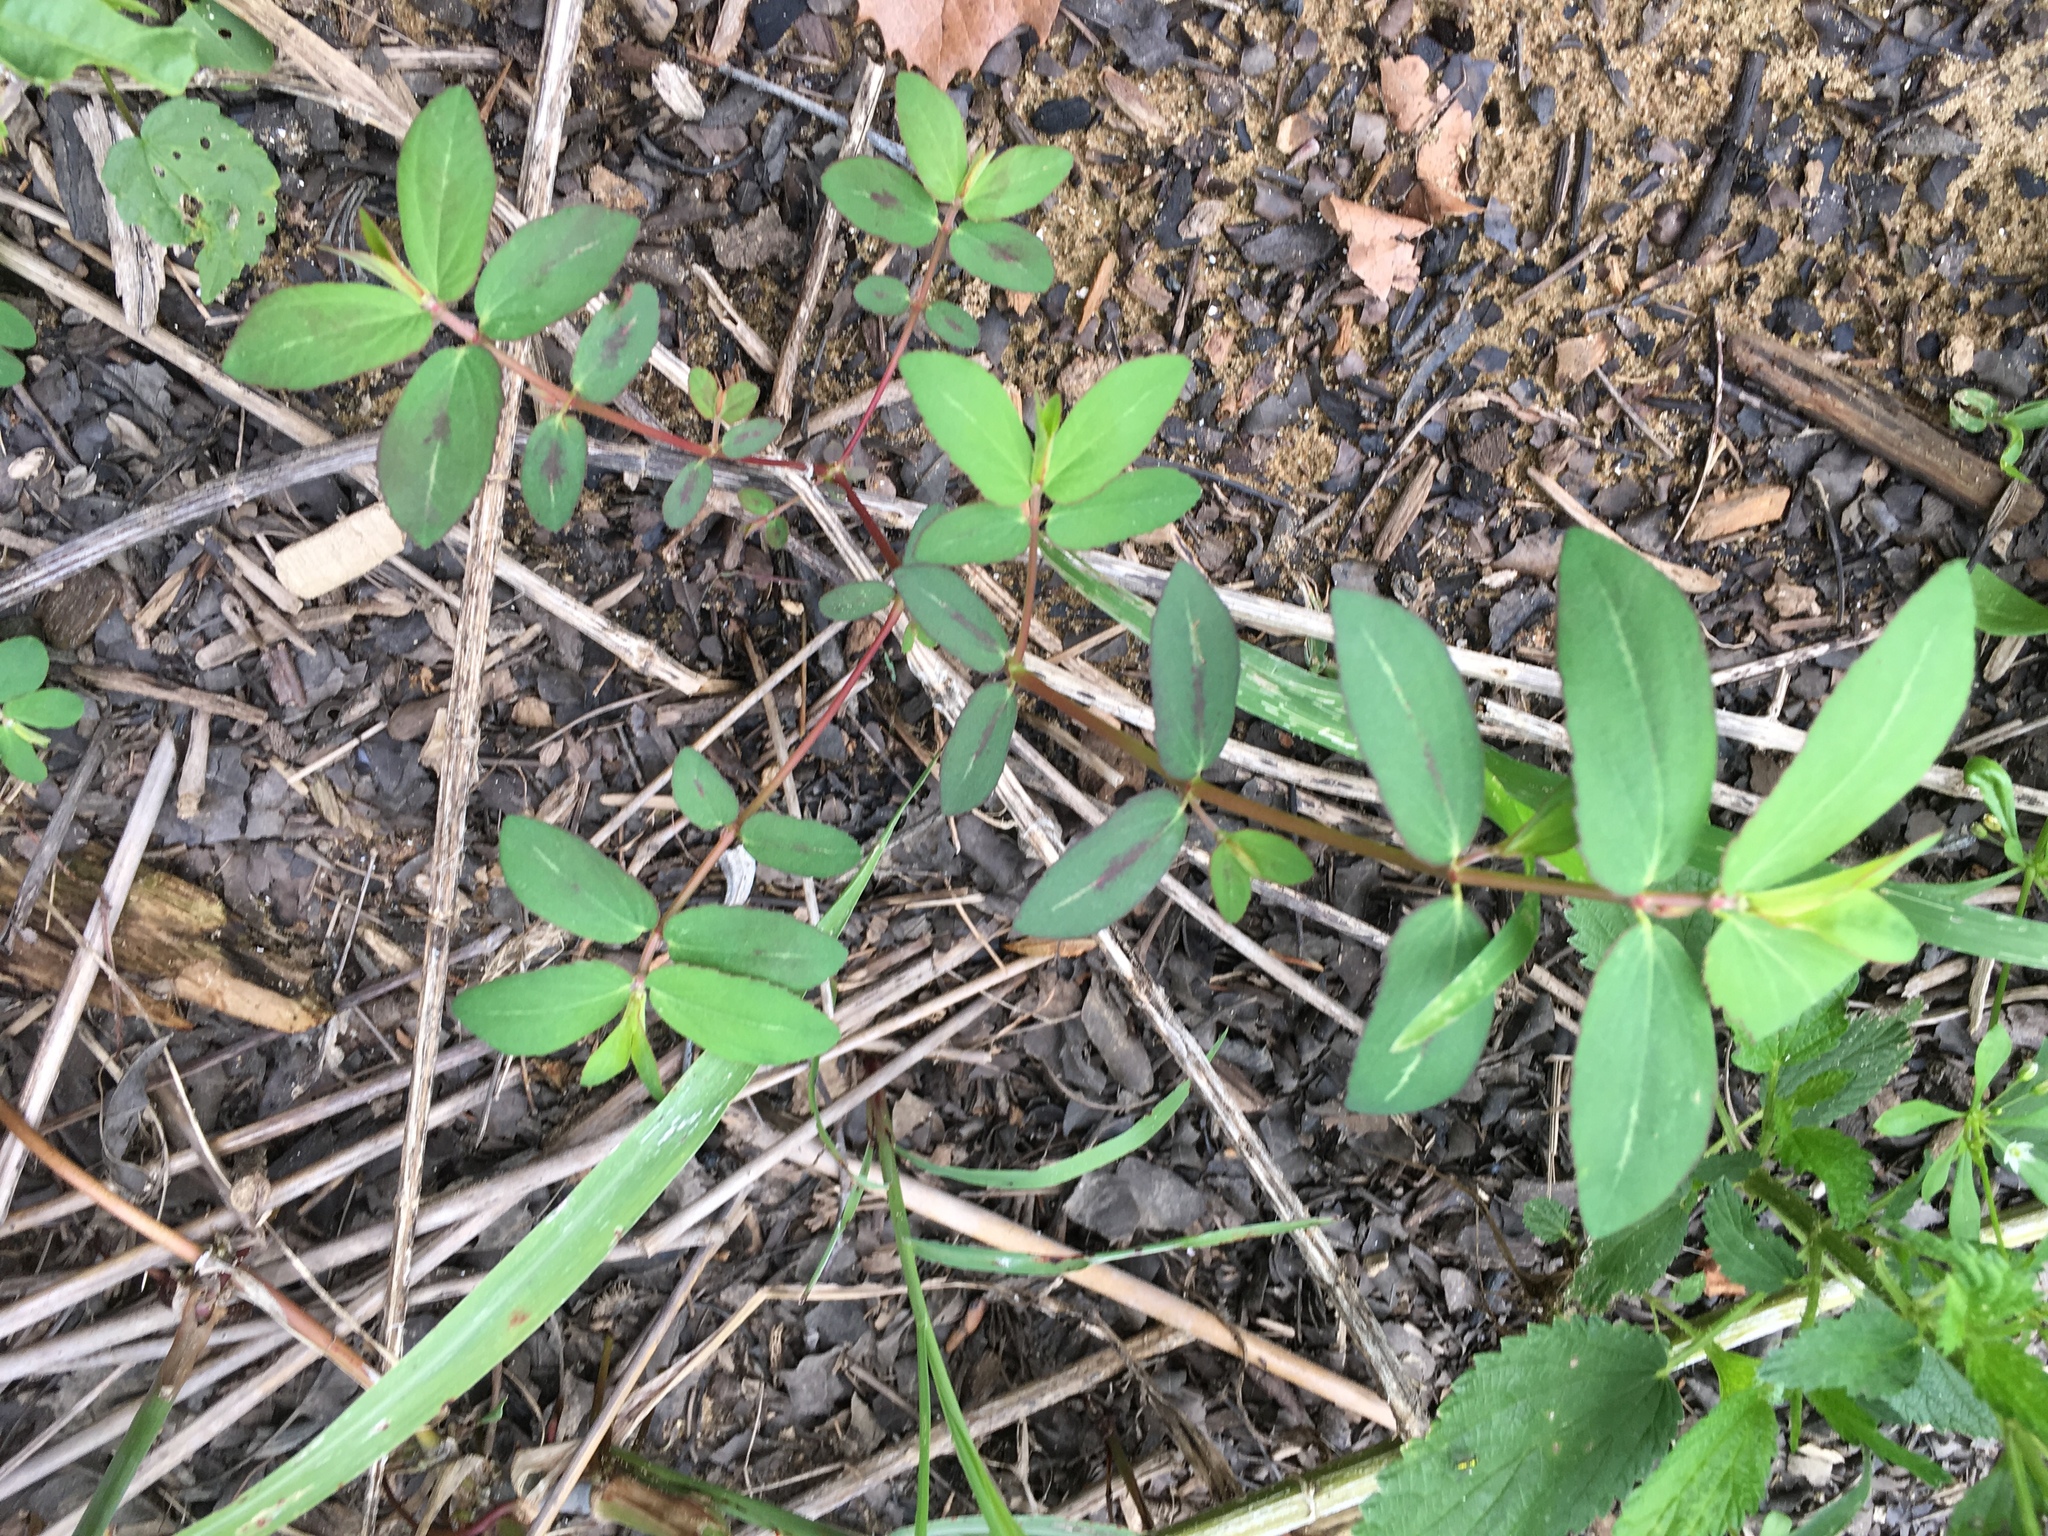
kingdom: Plantae
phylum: Tracheophyta
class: Magnoliopsida
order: Malpighiales
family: Euphorbiaceae
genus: Euphorbia
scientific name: Euphorbia nutans
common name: Eyebane
